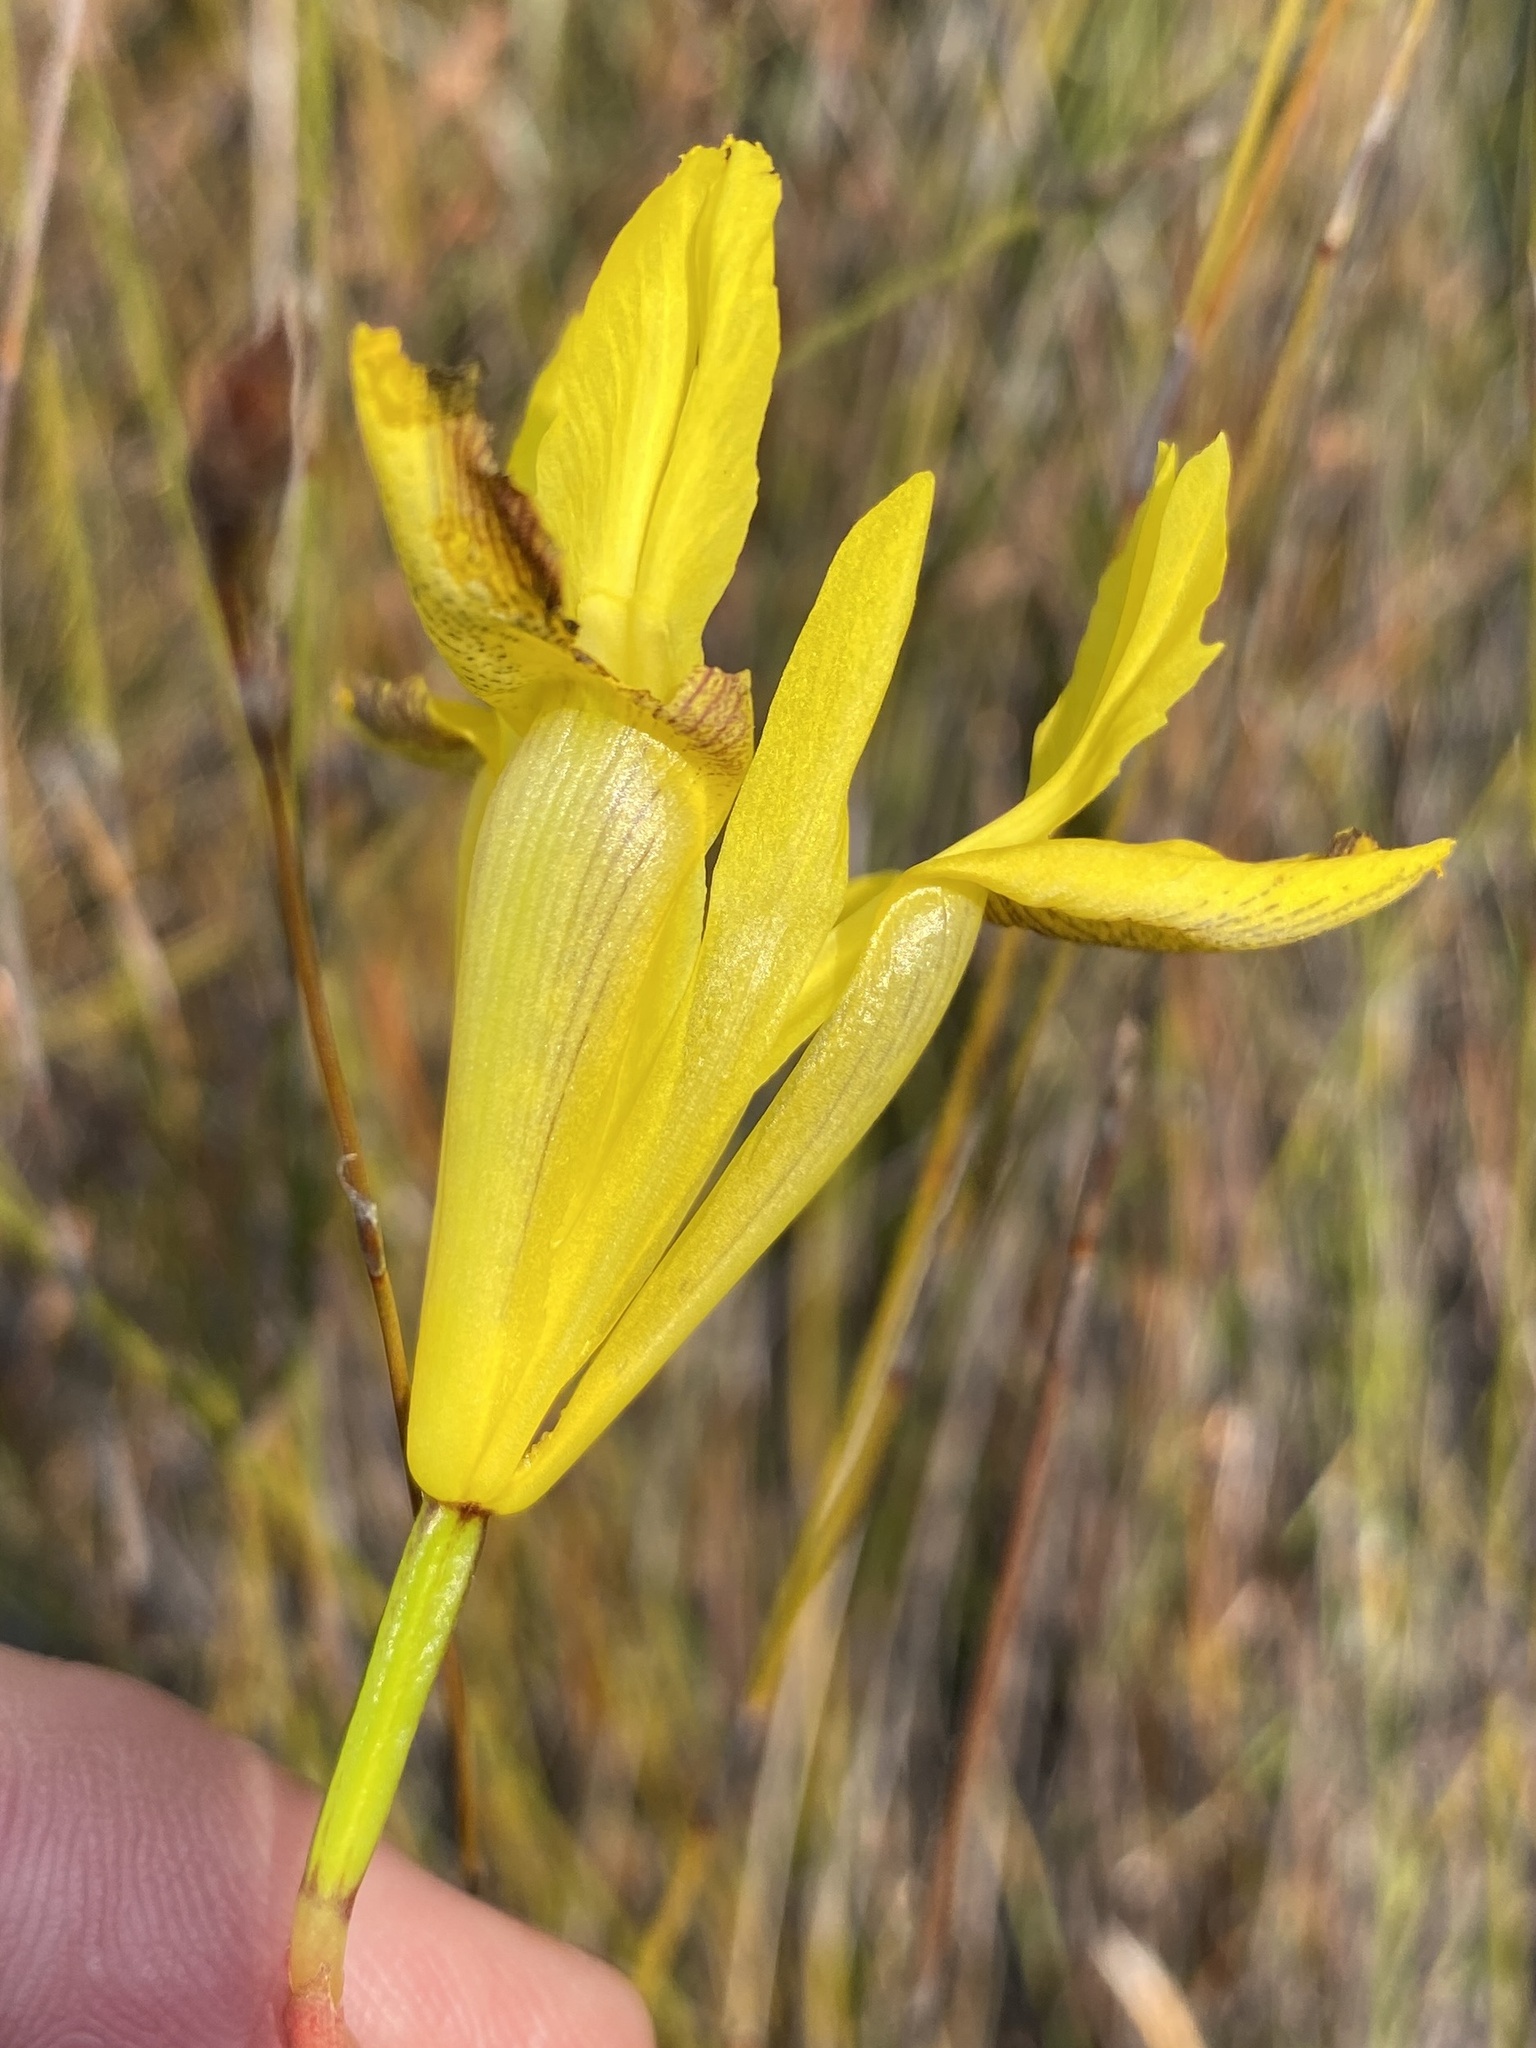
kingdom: Plantae
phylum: Tracheophyta
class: Liliopsida
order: Asparagales
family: Iridaceae
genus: Moraea
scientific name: Moraea neglecta
